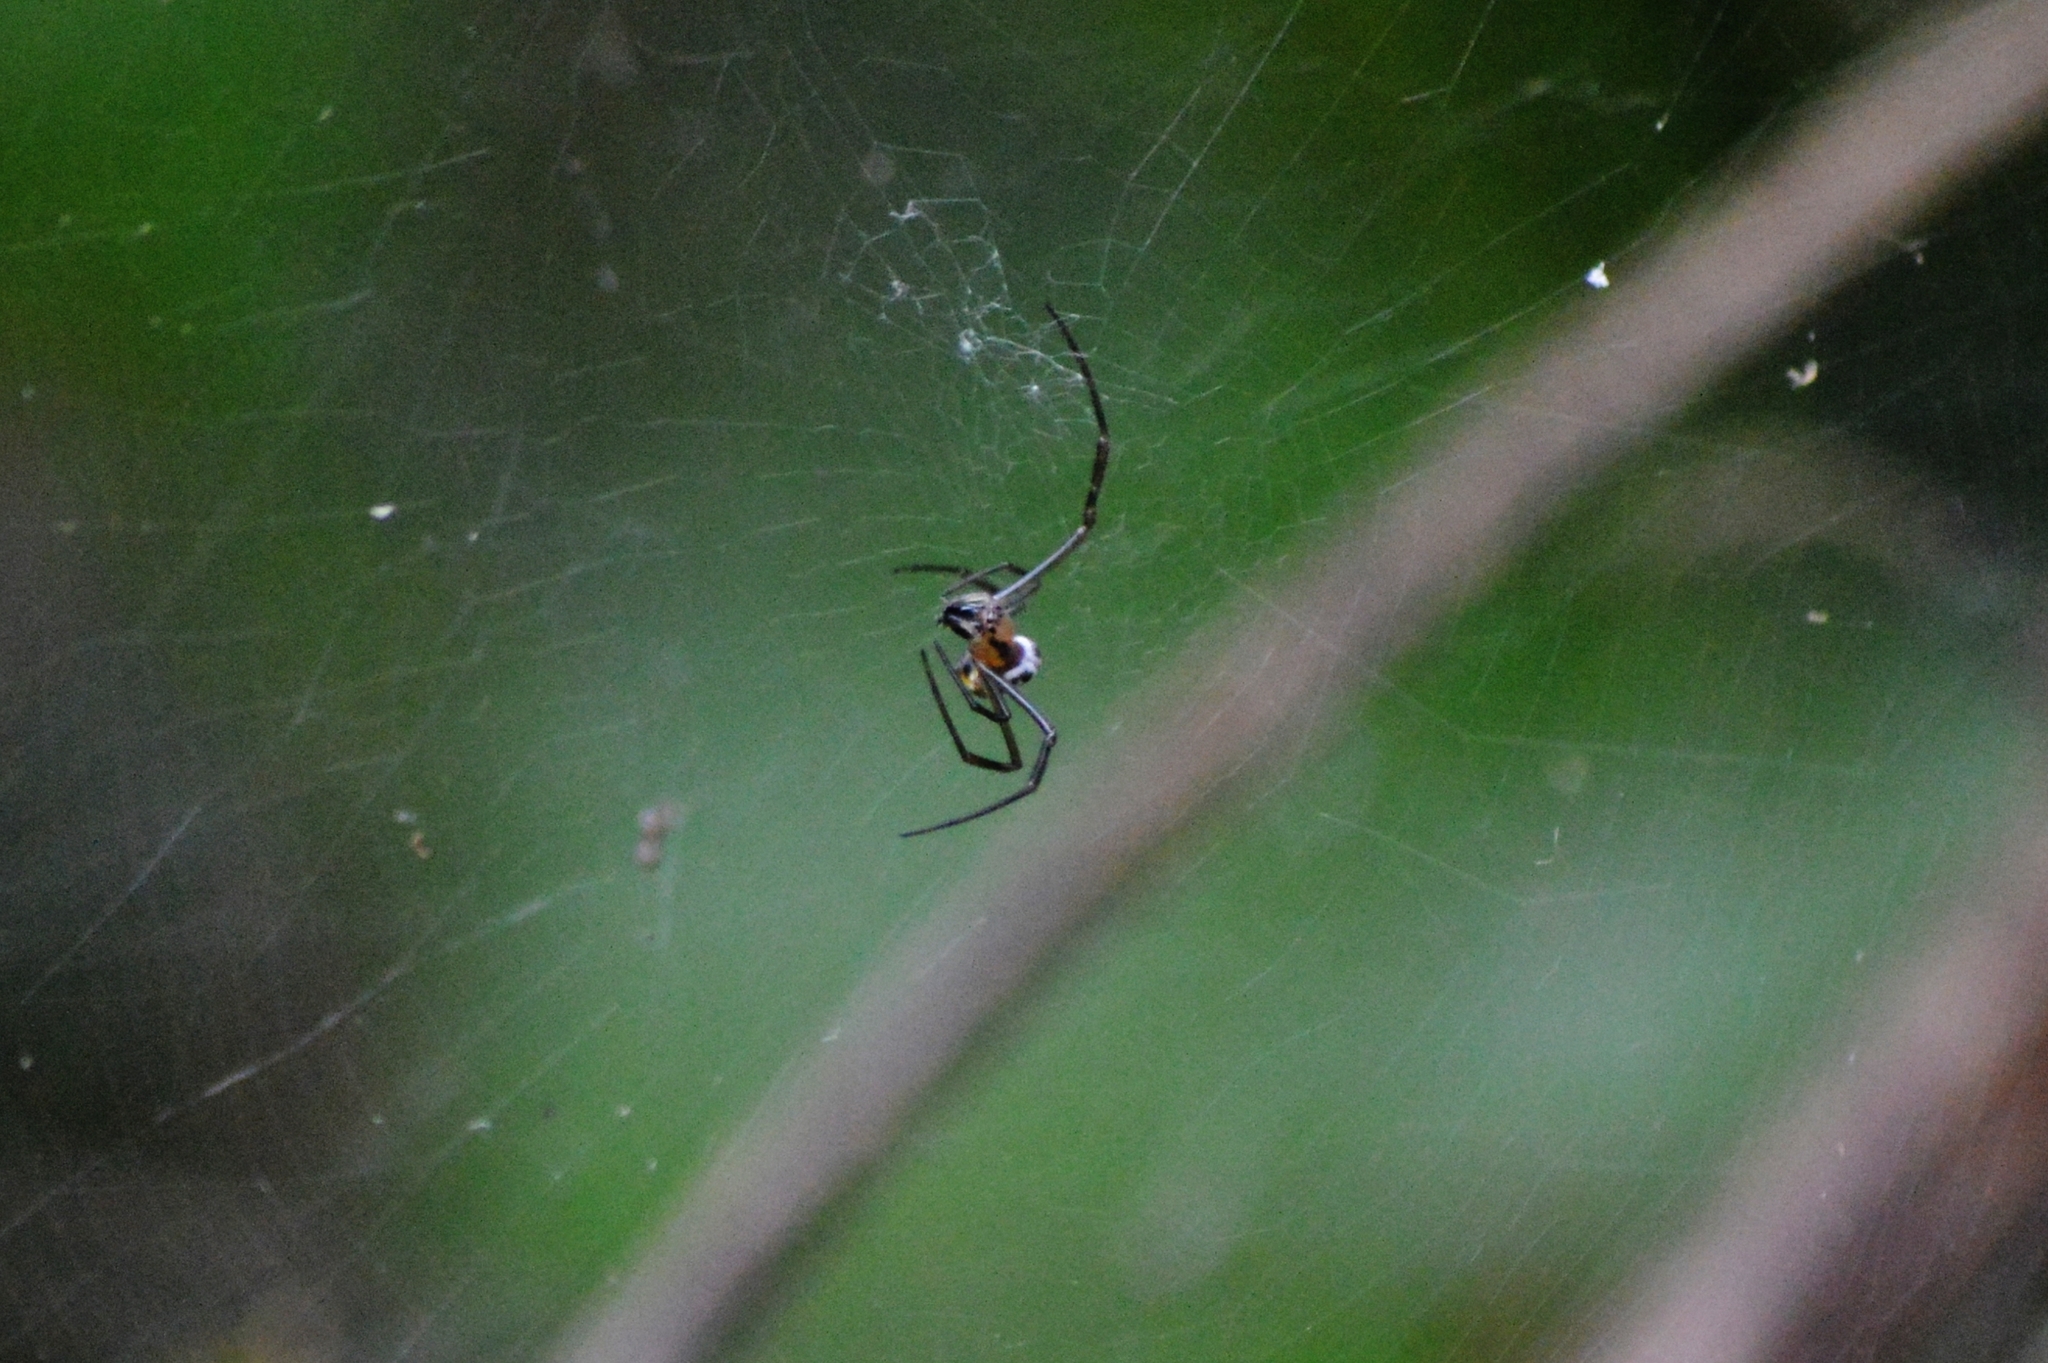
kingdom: Animalia
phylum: Arthropoda
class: Arachnida
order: Araneae
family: Araneidae
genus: Trichonephila
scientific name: Trichonephila clavipes
